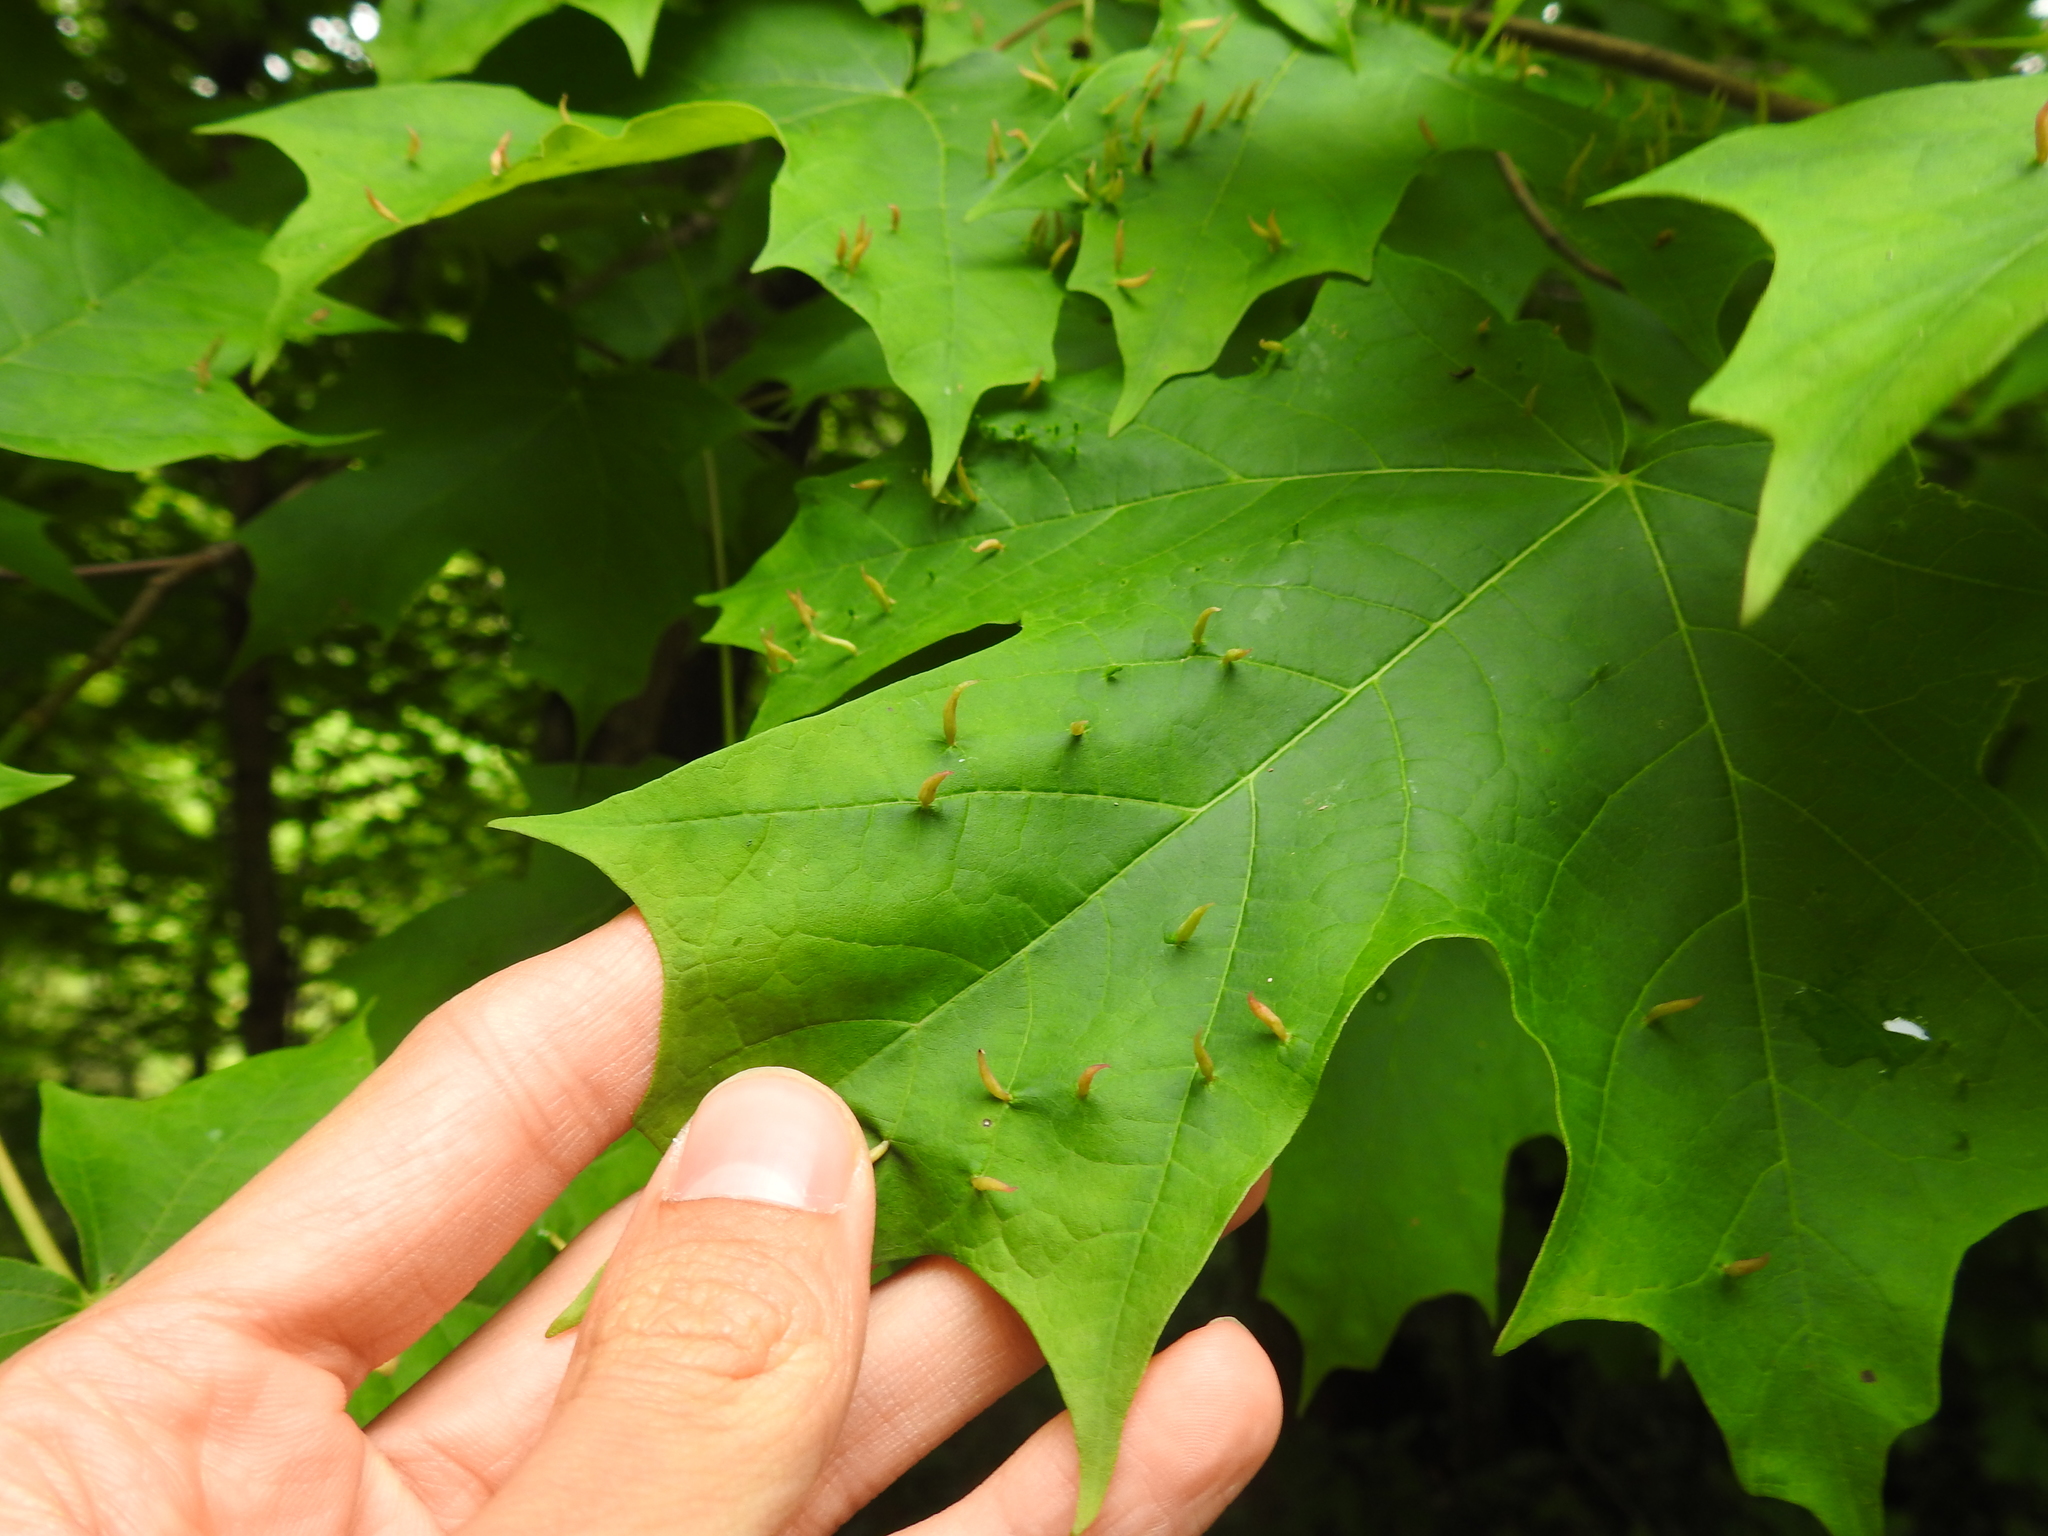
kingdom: Animalia
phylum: Arthropoda
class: Arachnida
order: Trombidiformes
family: Eriophyidae
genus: Vasates
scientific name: Vasates aceriscrumena
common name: Maple spindle gall mite
